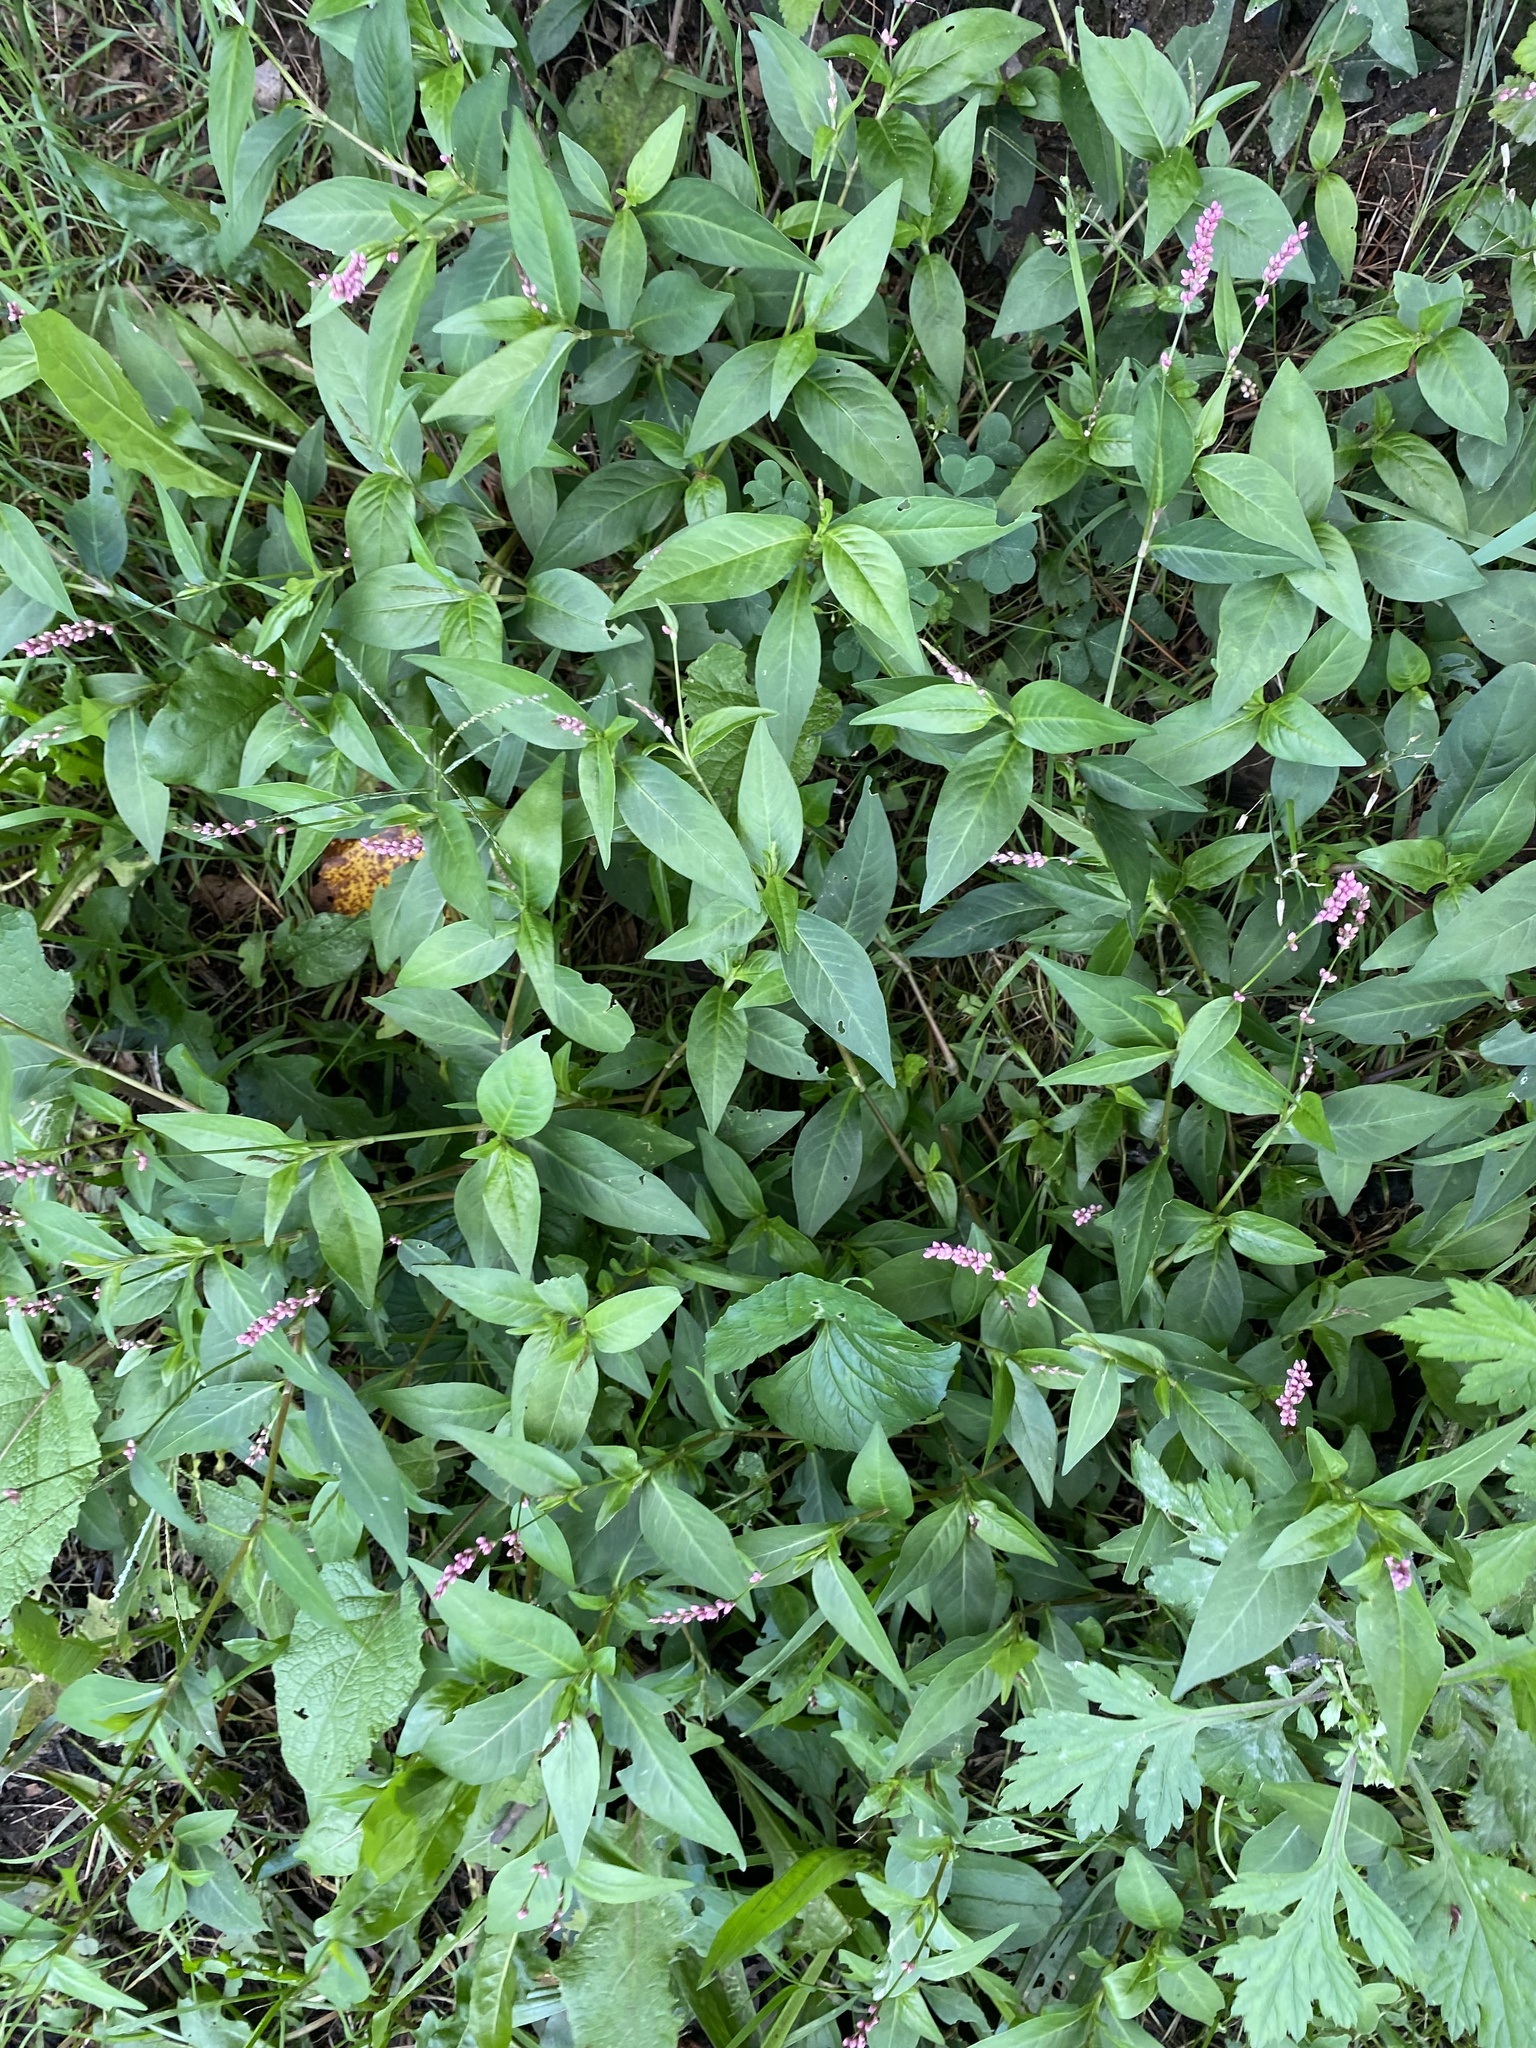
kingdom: Plantae
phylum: Tracheophyta
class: Magnoliopsida
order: Caryophyllales
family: Polygonaceae
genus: Persicaria
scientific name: Persicaria longiseta
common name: Bristly lady's-thumb
